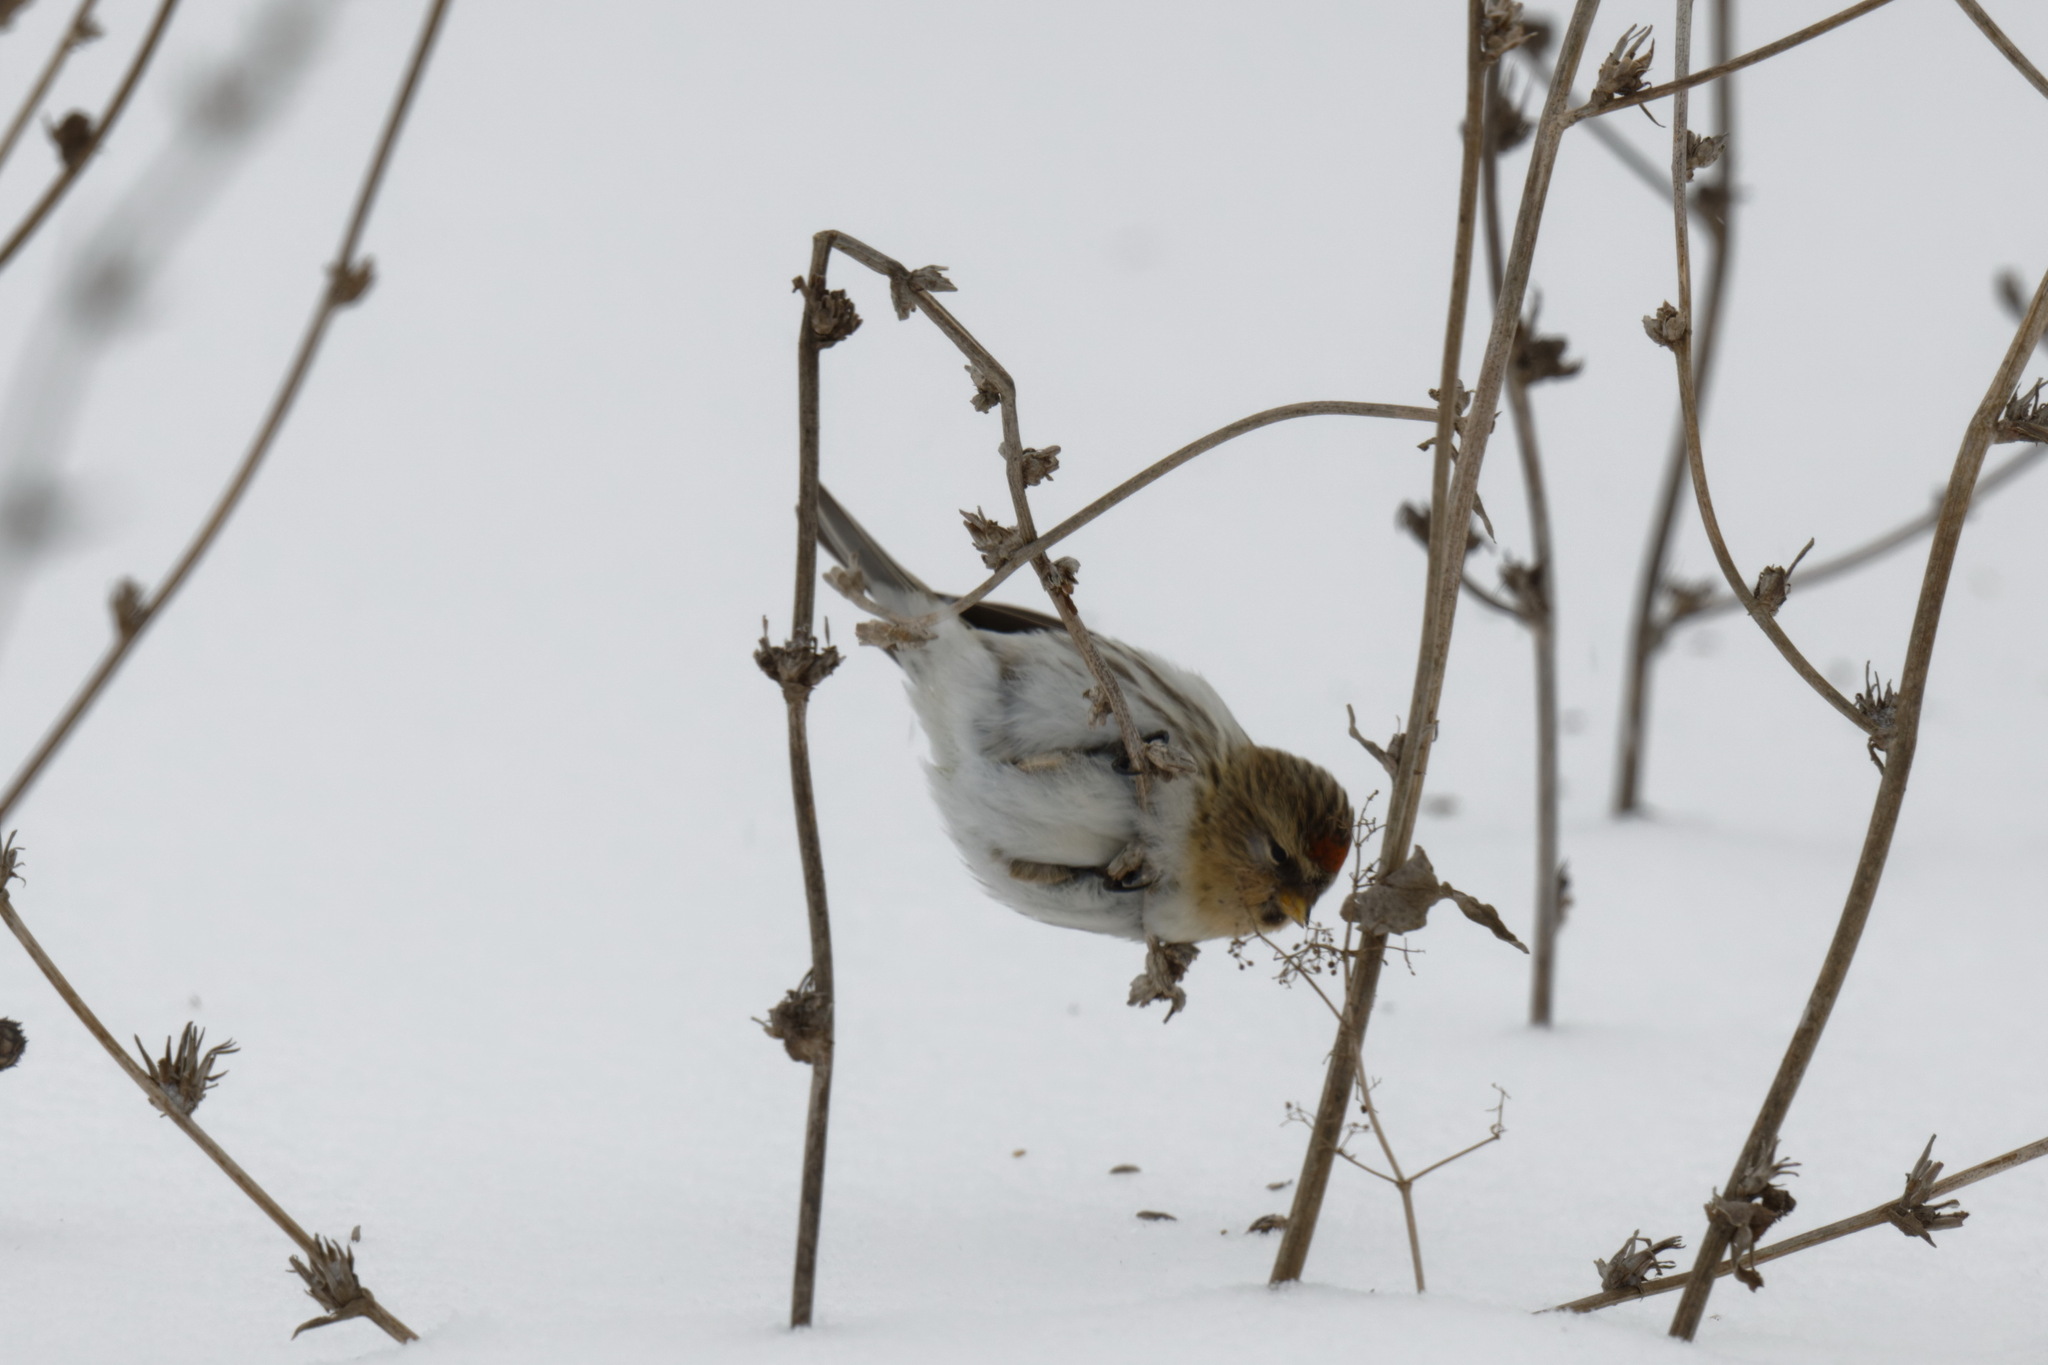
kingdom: Animalia
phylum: Chordata
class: Aves
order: Passeriformes
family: Fringillidae
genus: Acanthis
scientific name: Acanthis flammea
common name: Common redpoll
